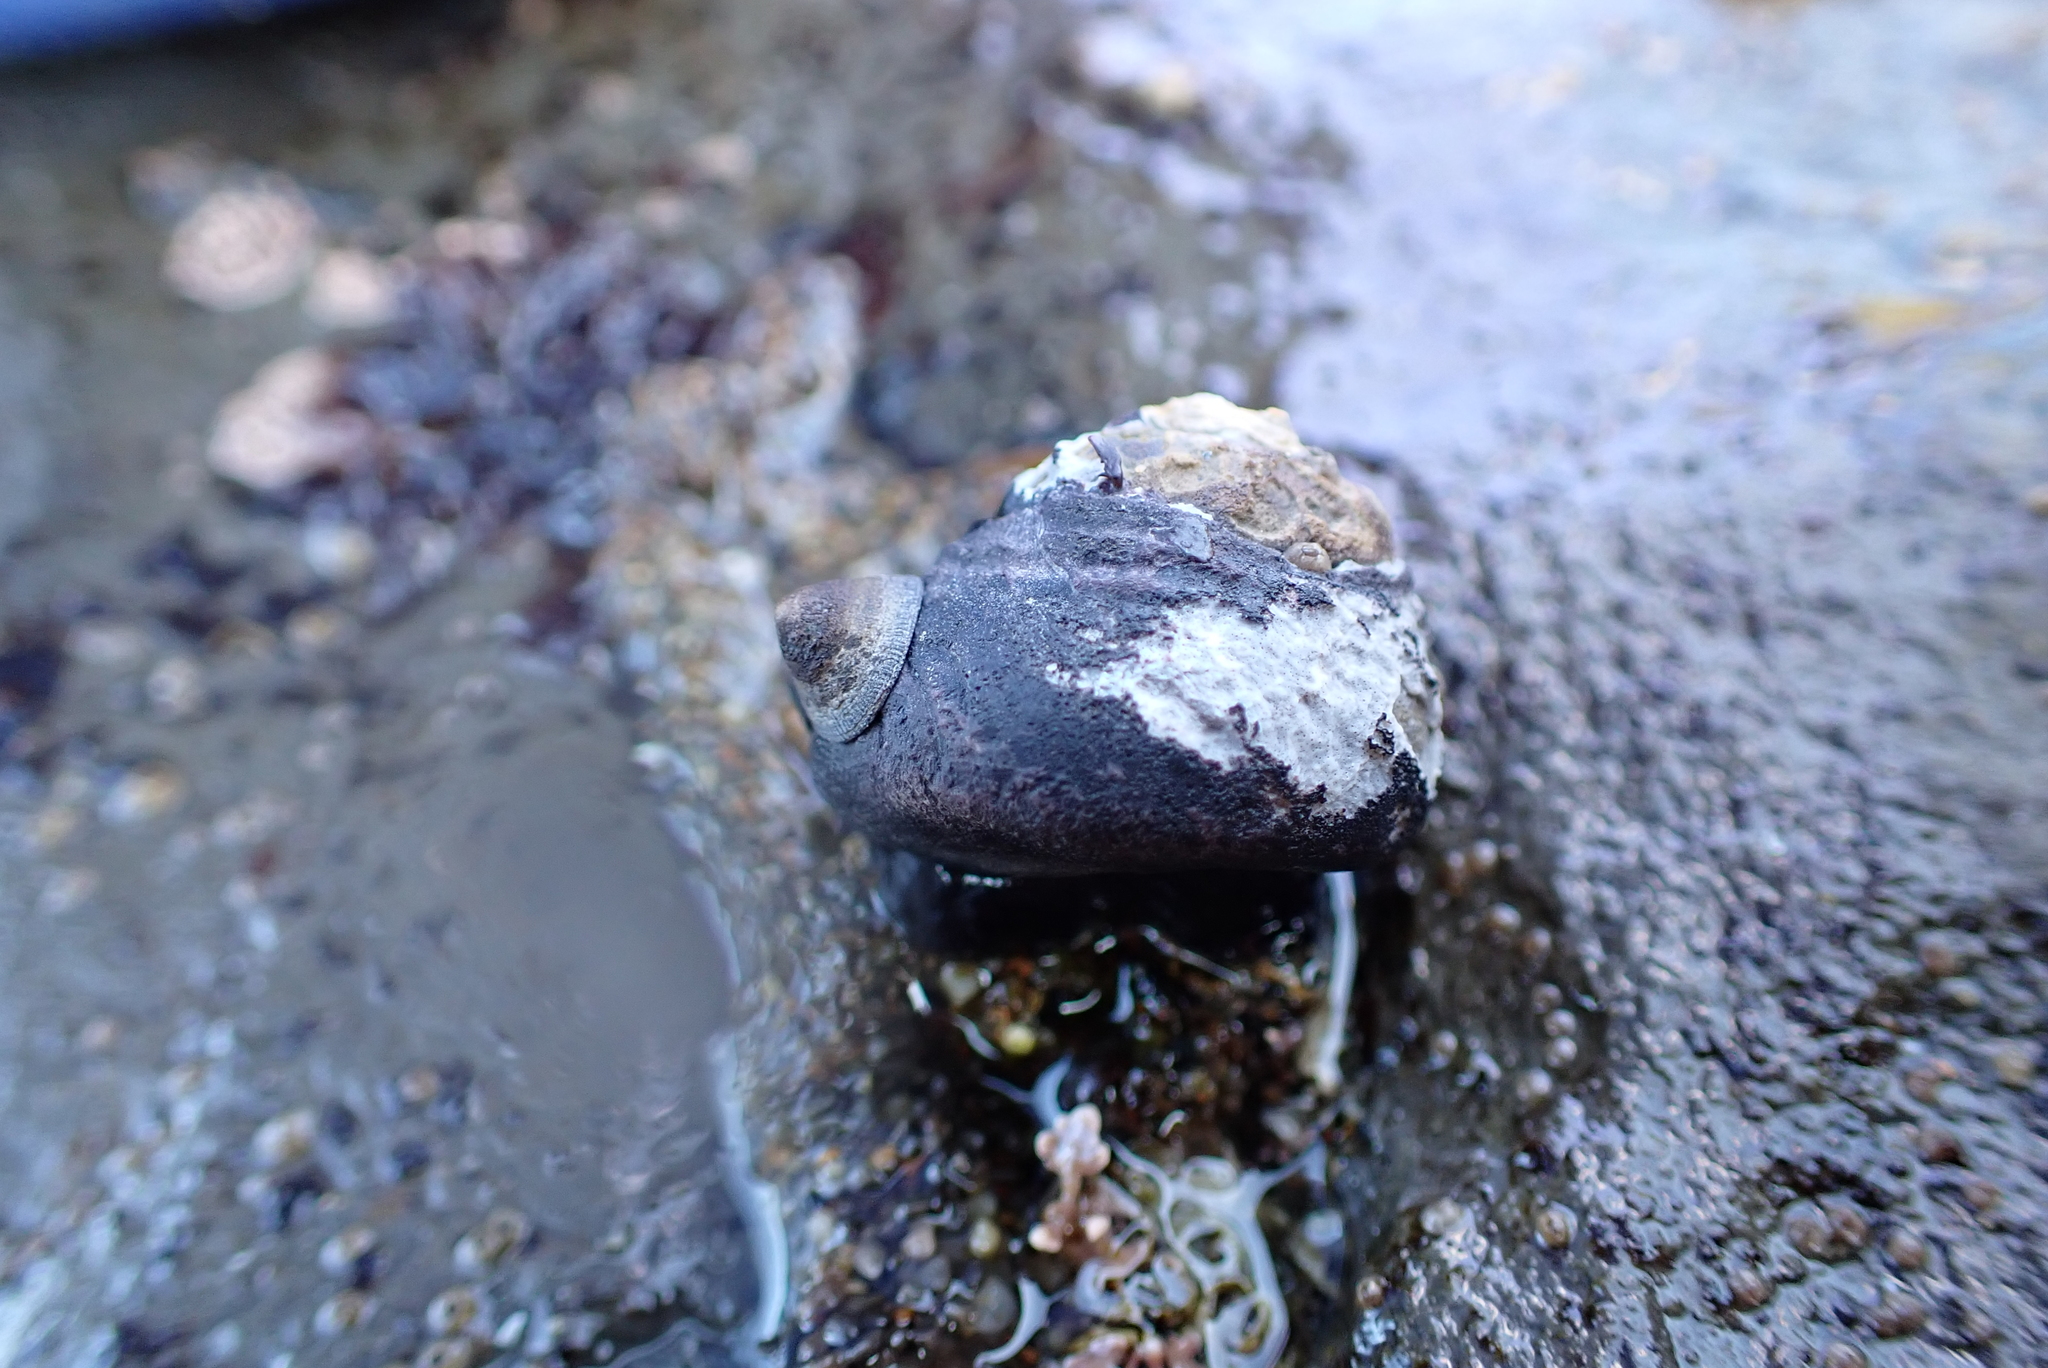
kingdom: Animalia
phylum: Mollusca
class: Gastropoda
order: Trochida
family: Tegulidae
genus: Tegula
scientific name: Tegula funebralis
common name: Black tegula
